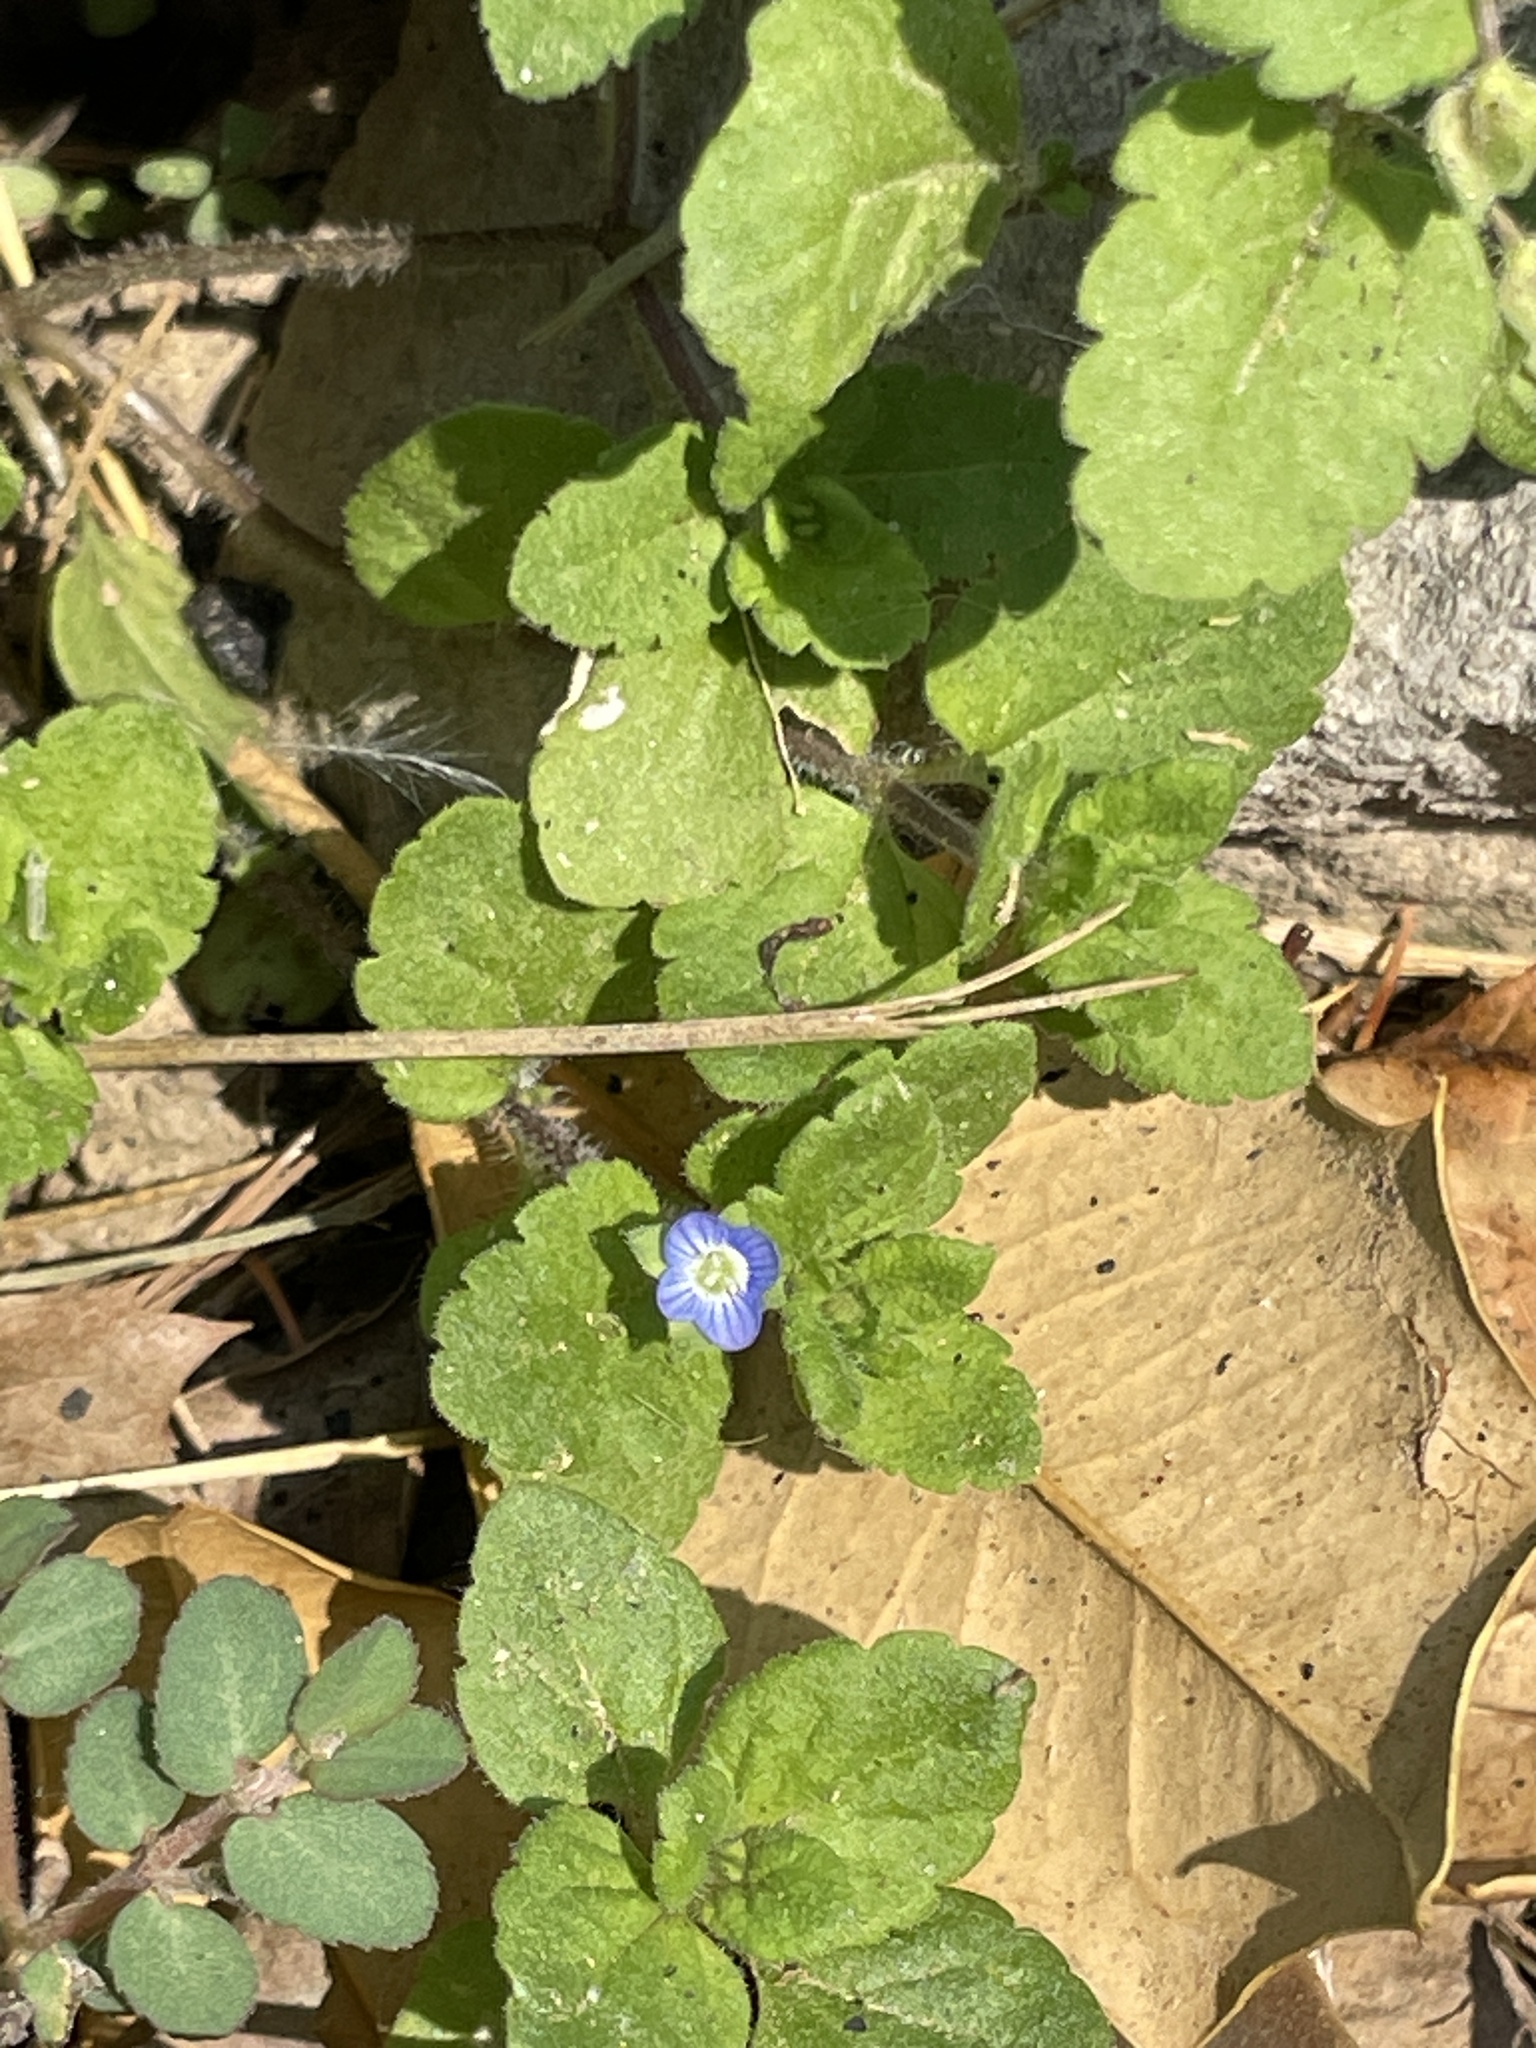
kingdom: Plantae
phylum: Tracheophyta
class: Magnoliopsida
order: Lamiales
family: Plantaginaceae
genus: Veronica
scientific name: Veronica polita
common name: Grey field-speedwell
